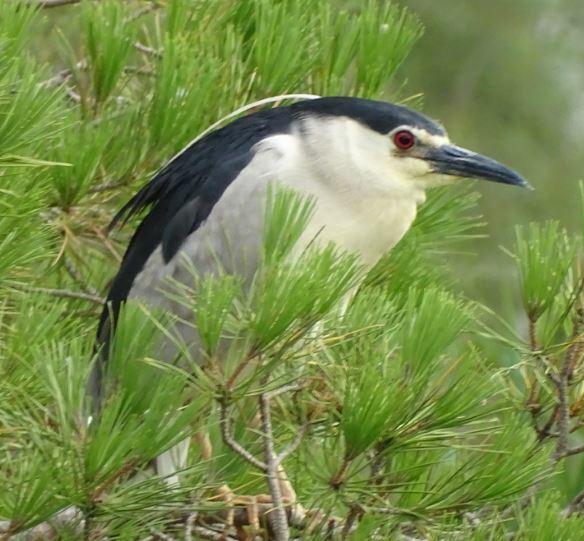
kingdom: Animalia
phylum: Chordata
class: Aves
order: Pelecaniformes
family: Ardeidae
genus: Nycticorax
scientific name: Nycticorax nycticorax
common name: Black-crowned night heron
